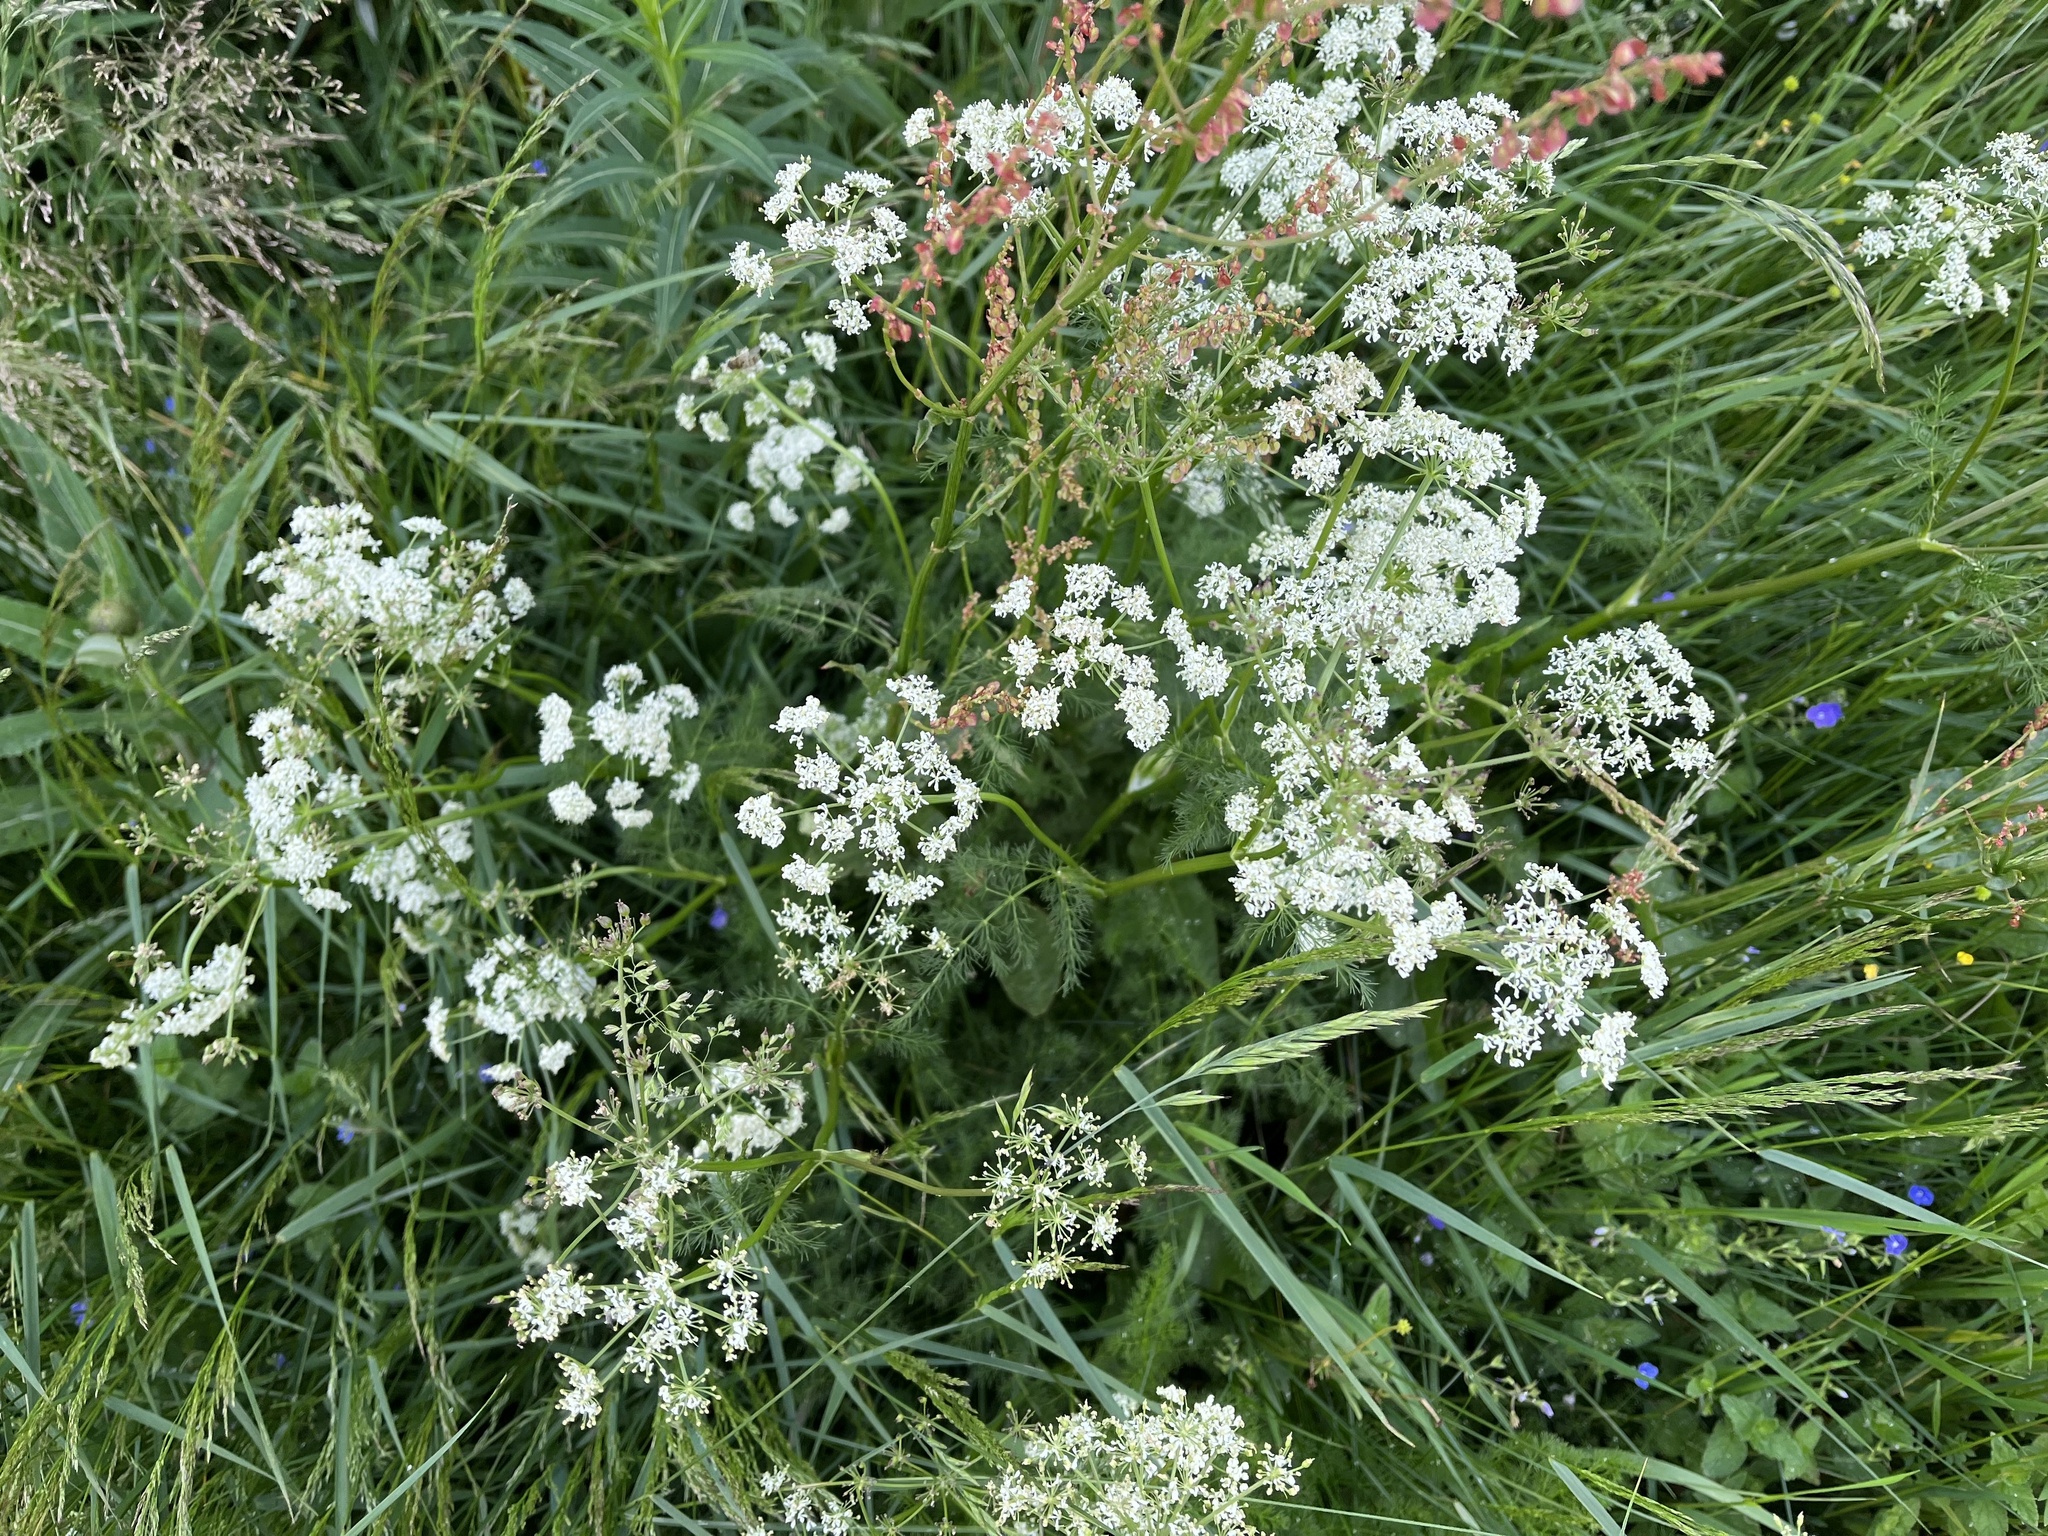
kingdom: Plantae
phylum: Tracheophyta
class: Magnoliopsida
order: Apiales
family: Apiaceae
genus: Meum
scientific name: Meum athamanticum
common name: Spignel
